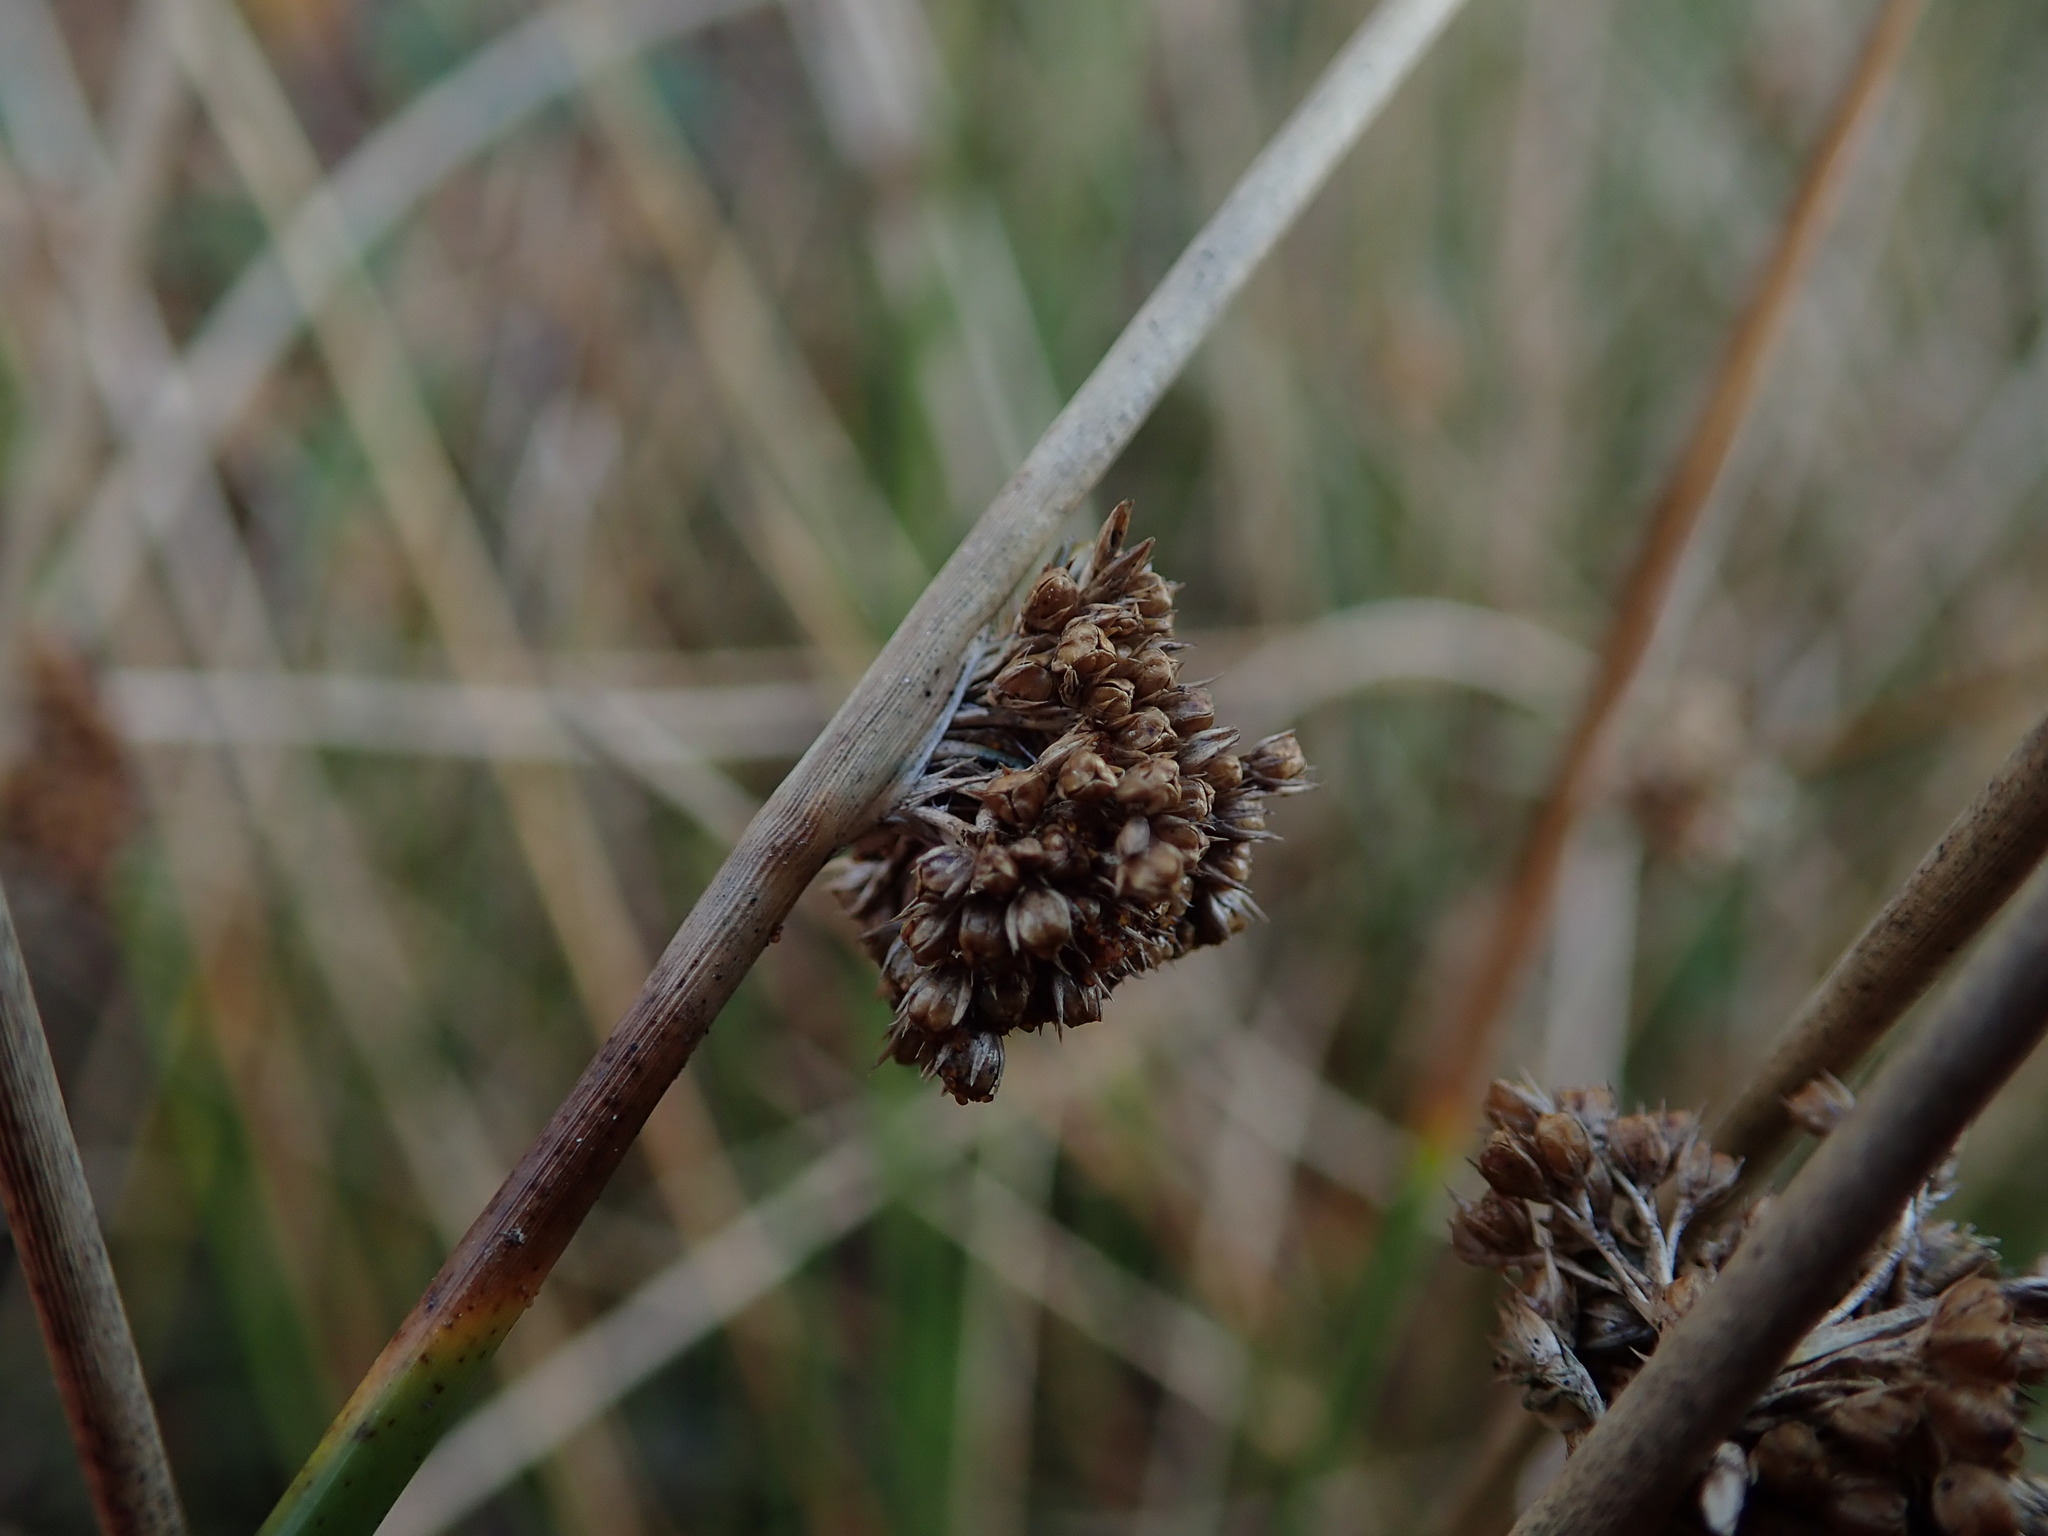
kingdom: Plantae
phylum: Tracheophyta
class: Liliopsida
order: Poales
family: Juncaceae
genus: Juncus
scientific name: Juncus effusus
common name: Soft rush
